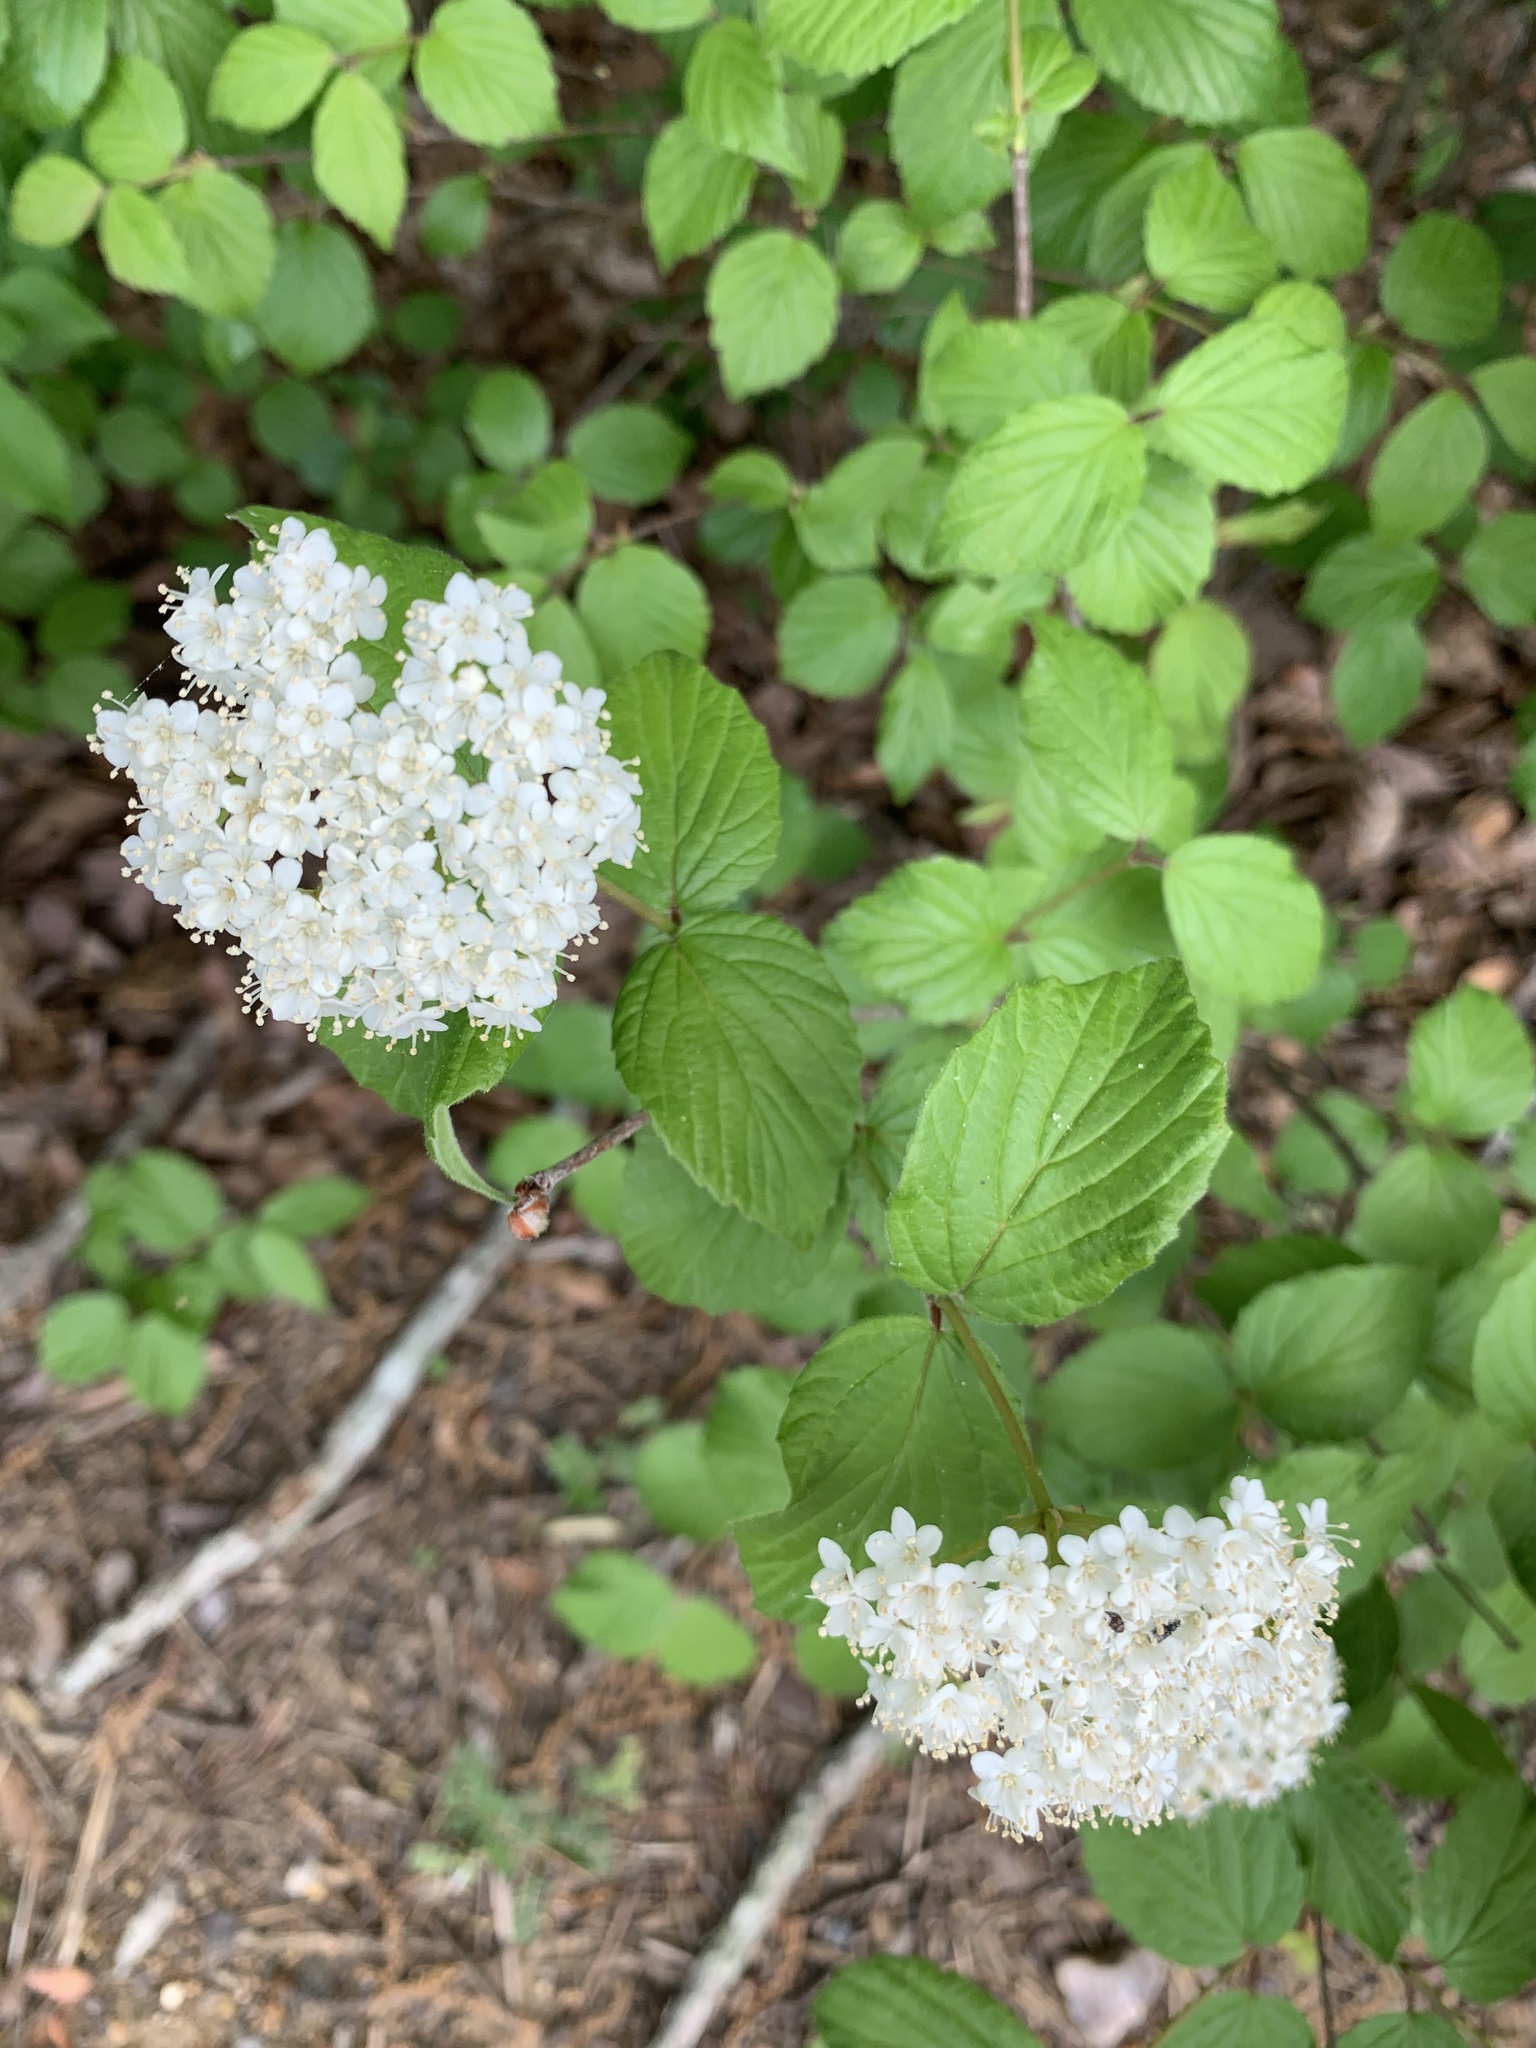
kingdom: Plantae
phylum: Tracheophyta
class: Magnoliopsida
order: Dipsacales
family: Viburnaceae
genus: Viburnum
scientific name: Viburnum rafinesqueanum
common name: Downy arrow-wood
